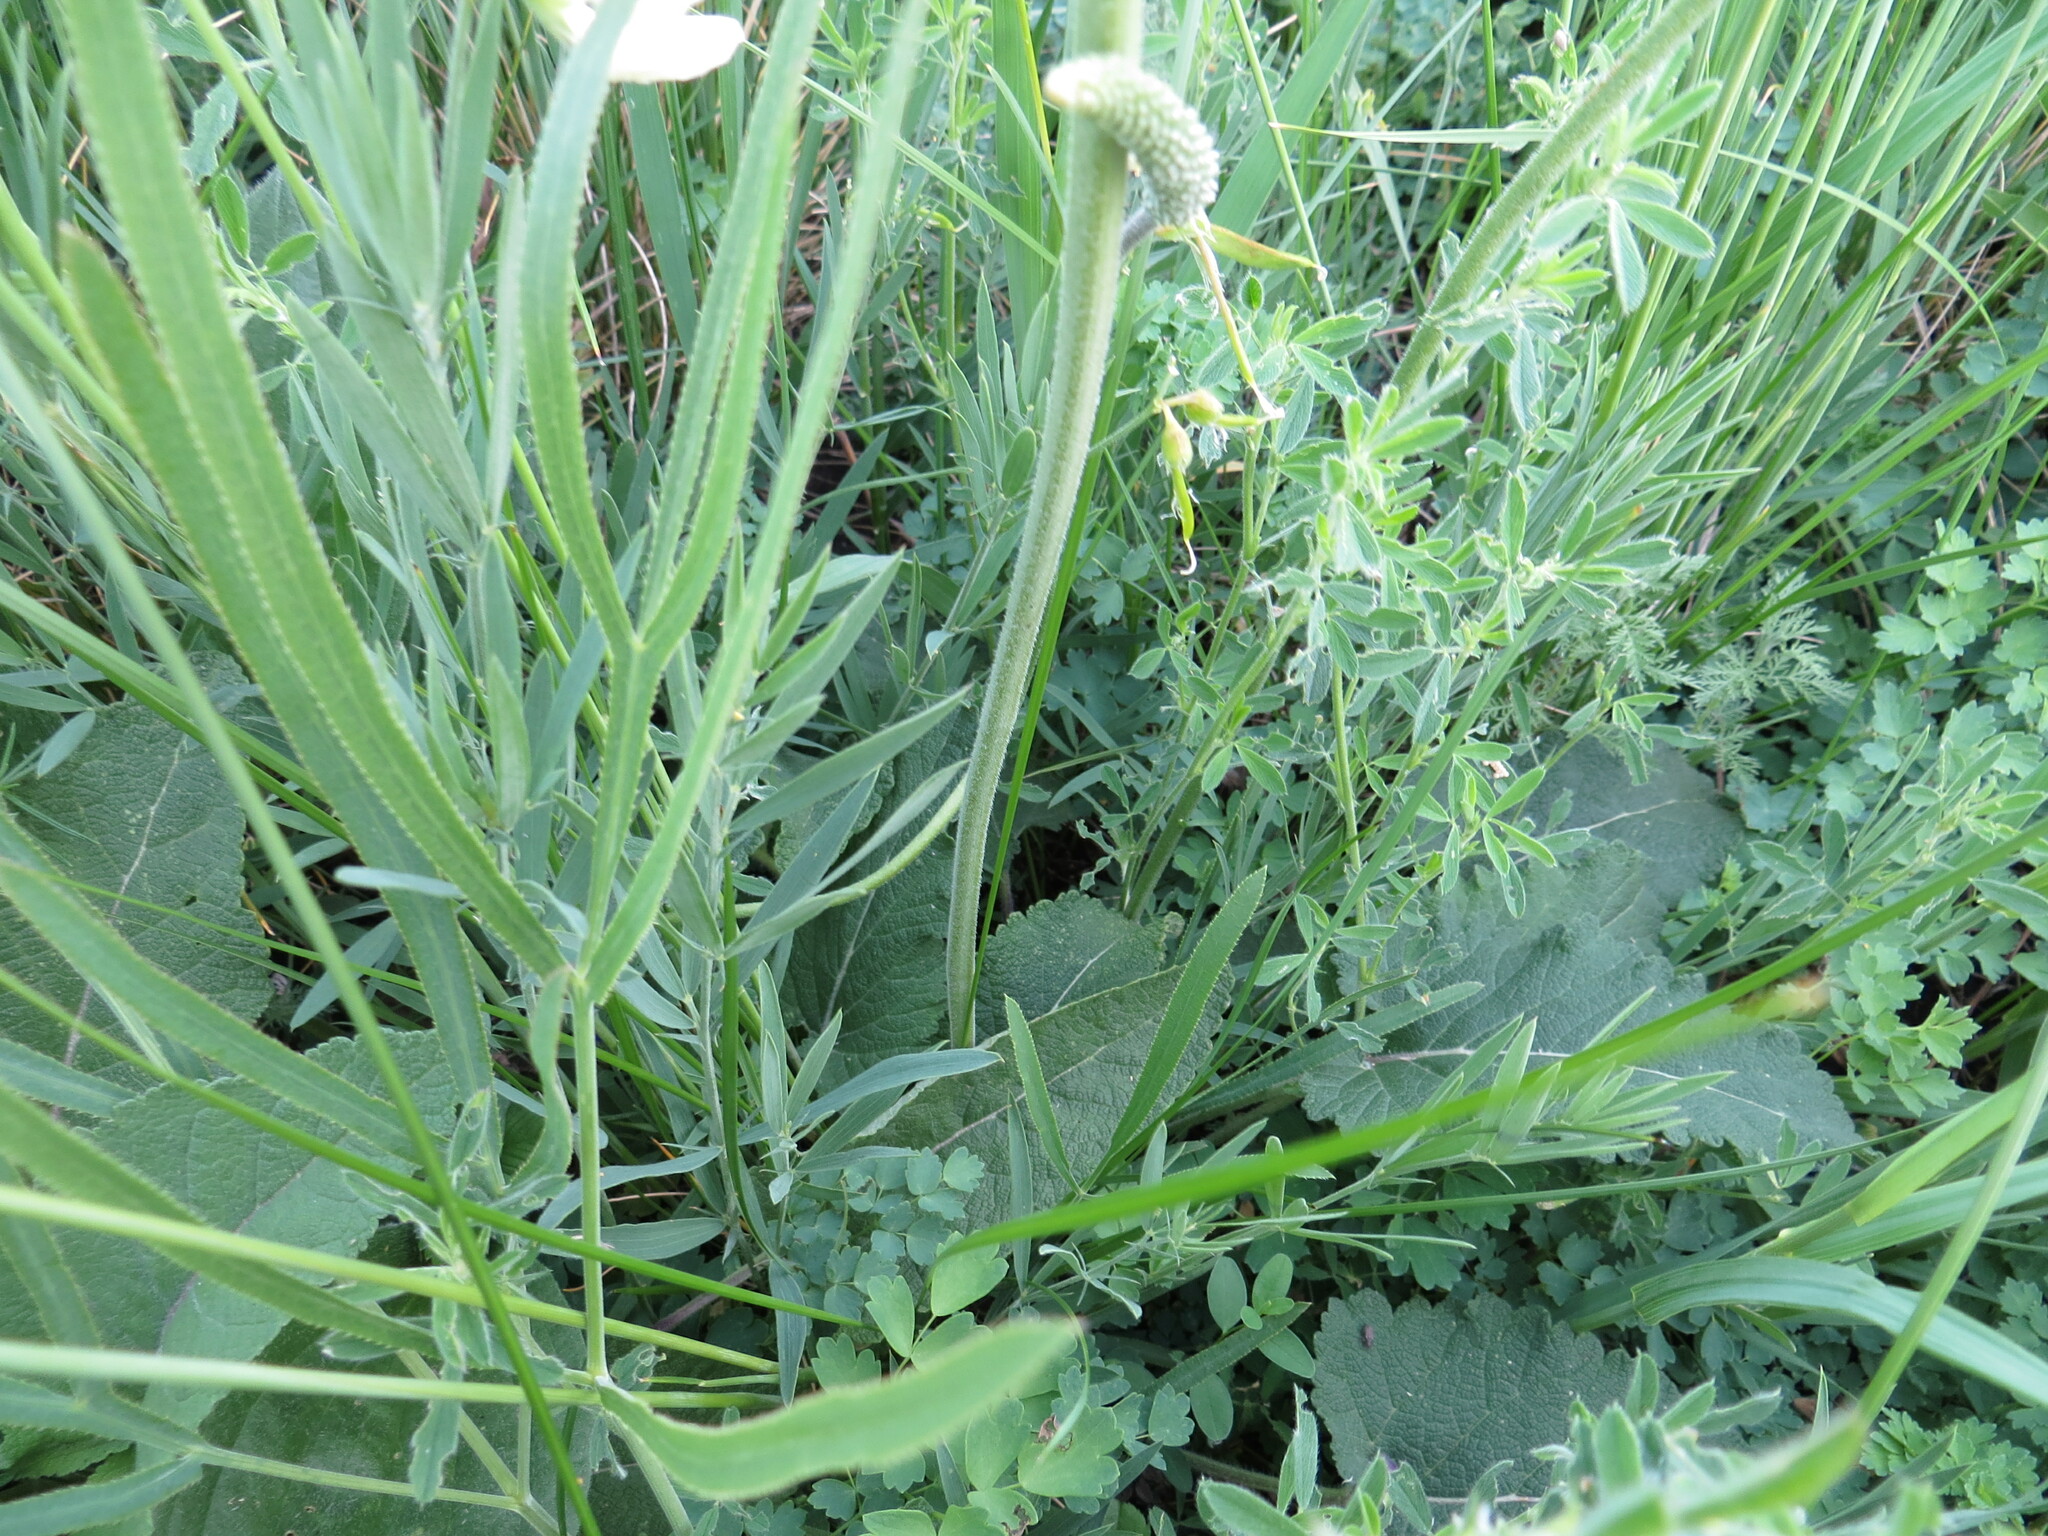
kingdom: Plantae
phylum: Tracheophyta
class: Magnoliopsida
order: Lamiales
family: Lamiaceae
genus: Salvia
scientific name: Salvia nutans
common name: Nodding sage
